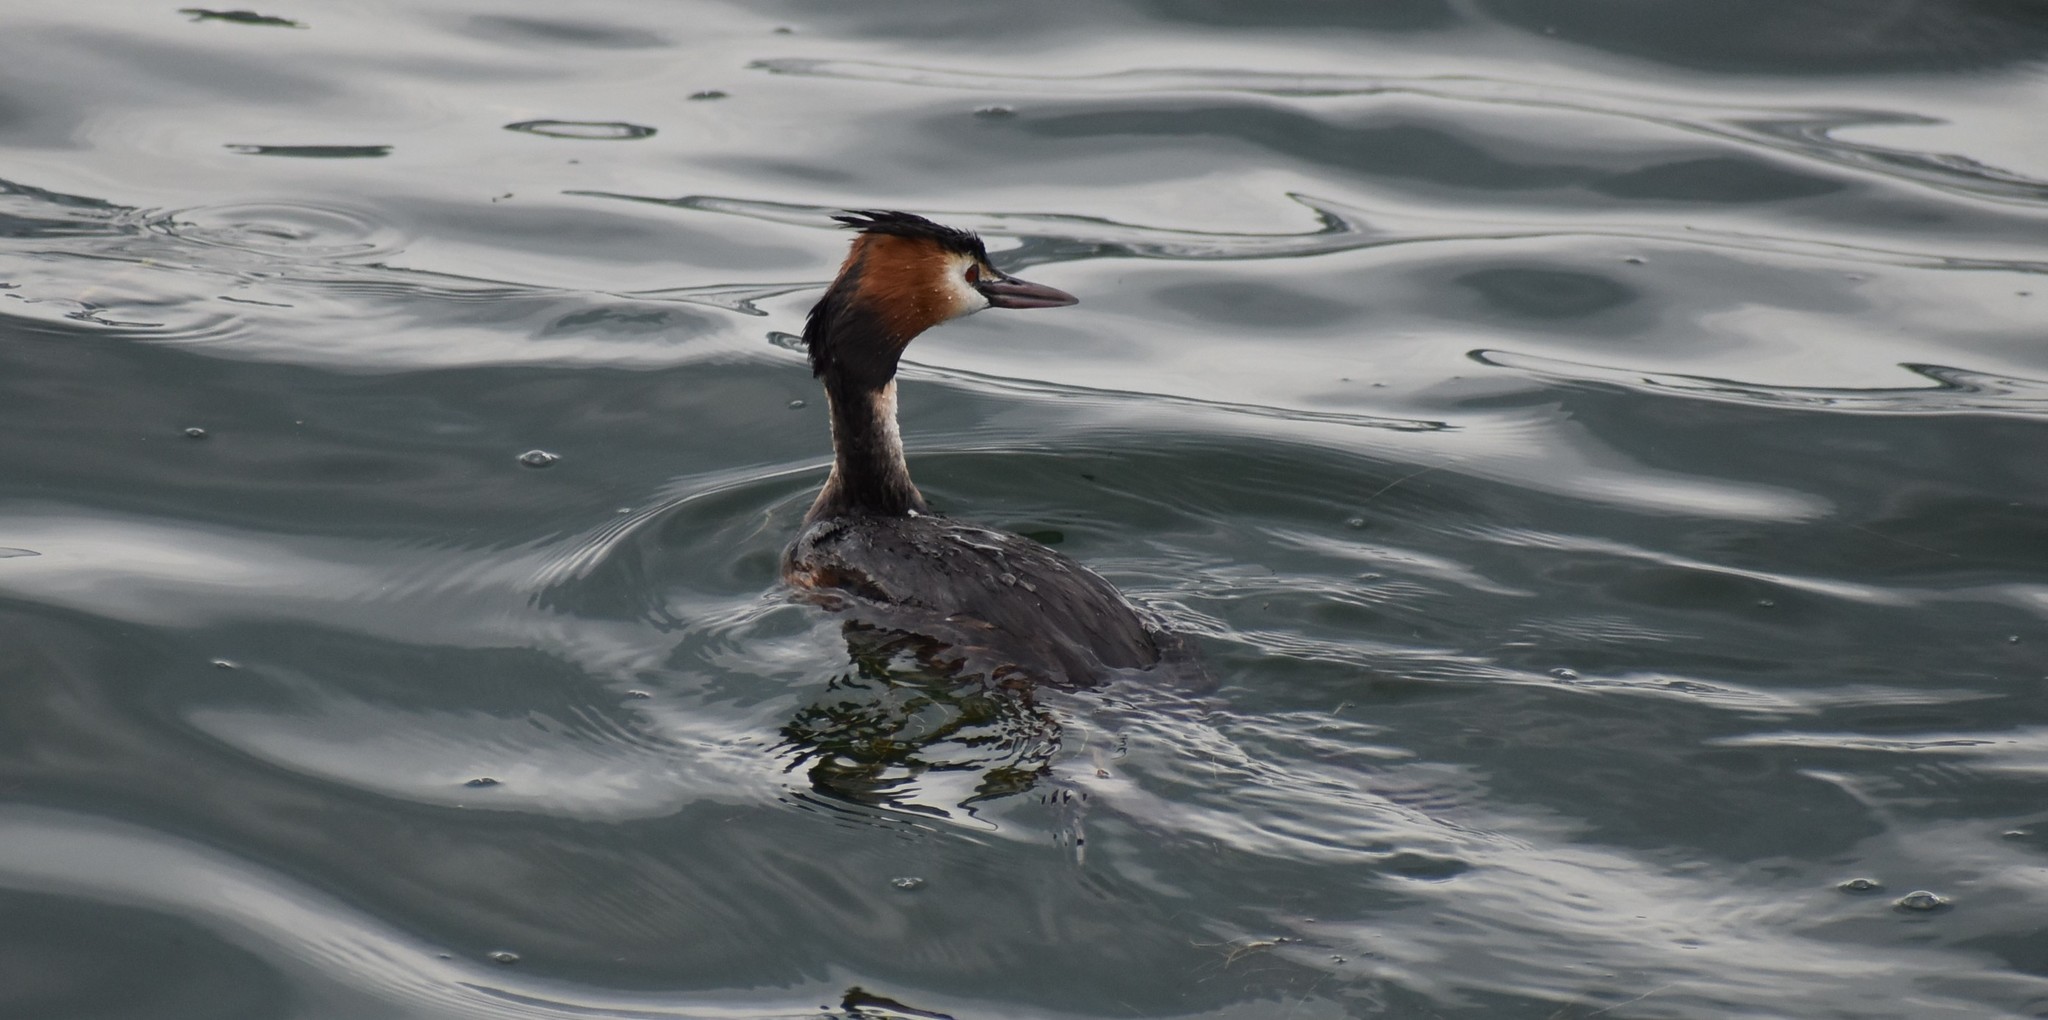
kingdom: Animalia
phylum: Chordata
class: Aves
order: Podicipediformes
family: Podicipedidae
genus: Podiceps
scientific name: Podiceps cristatus
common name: Great crested grebe
